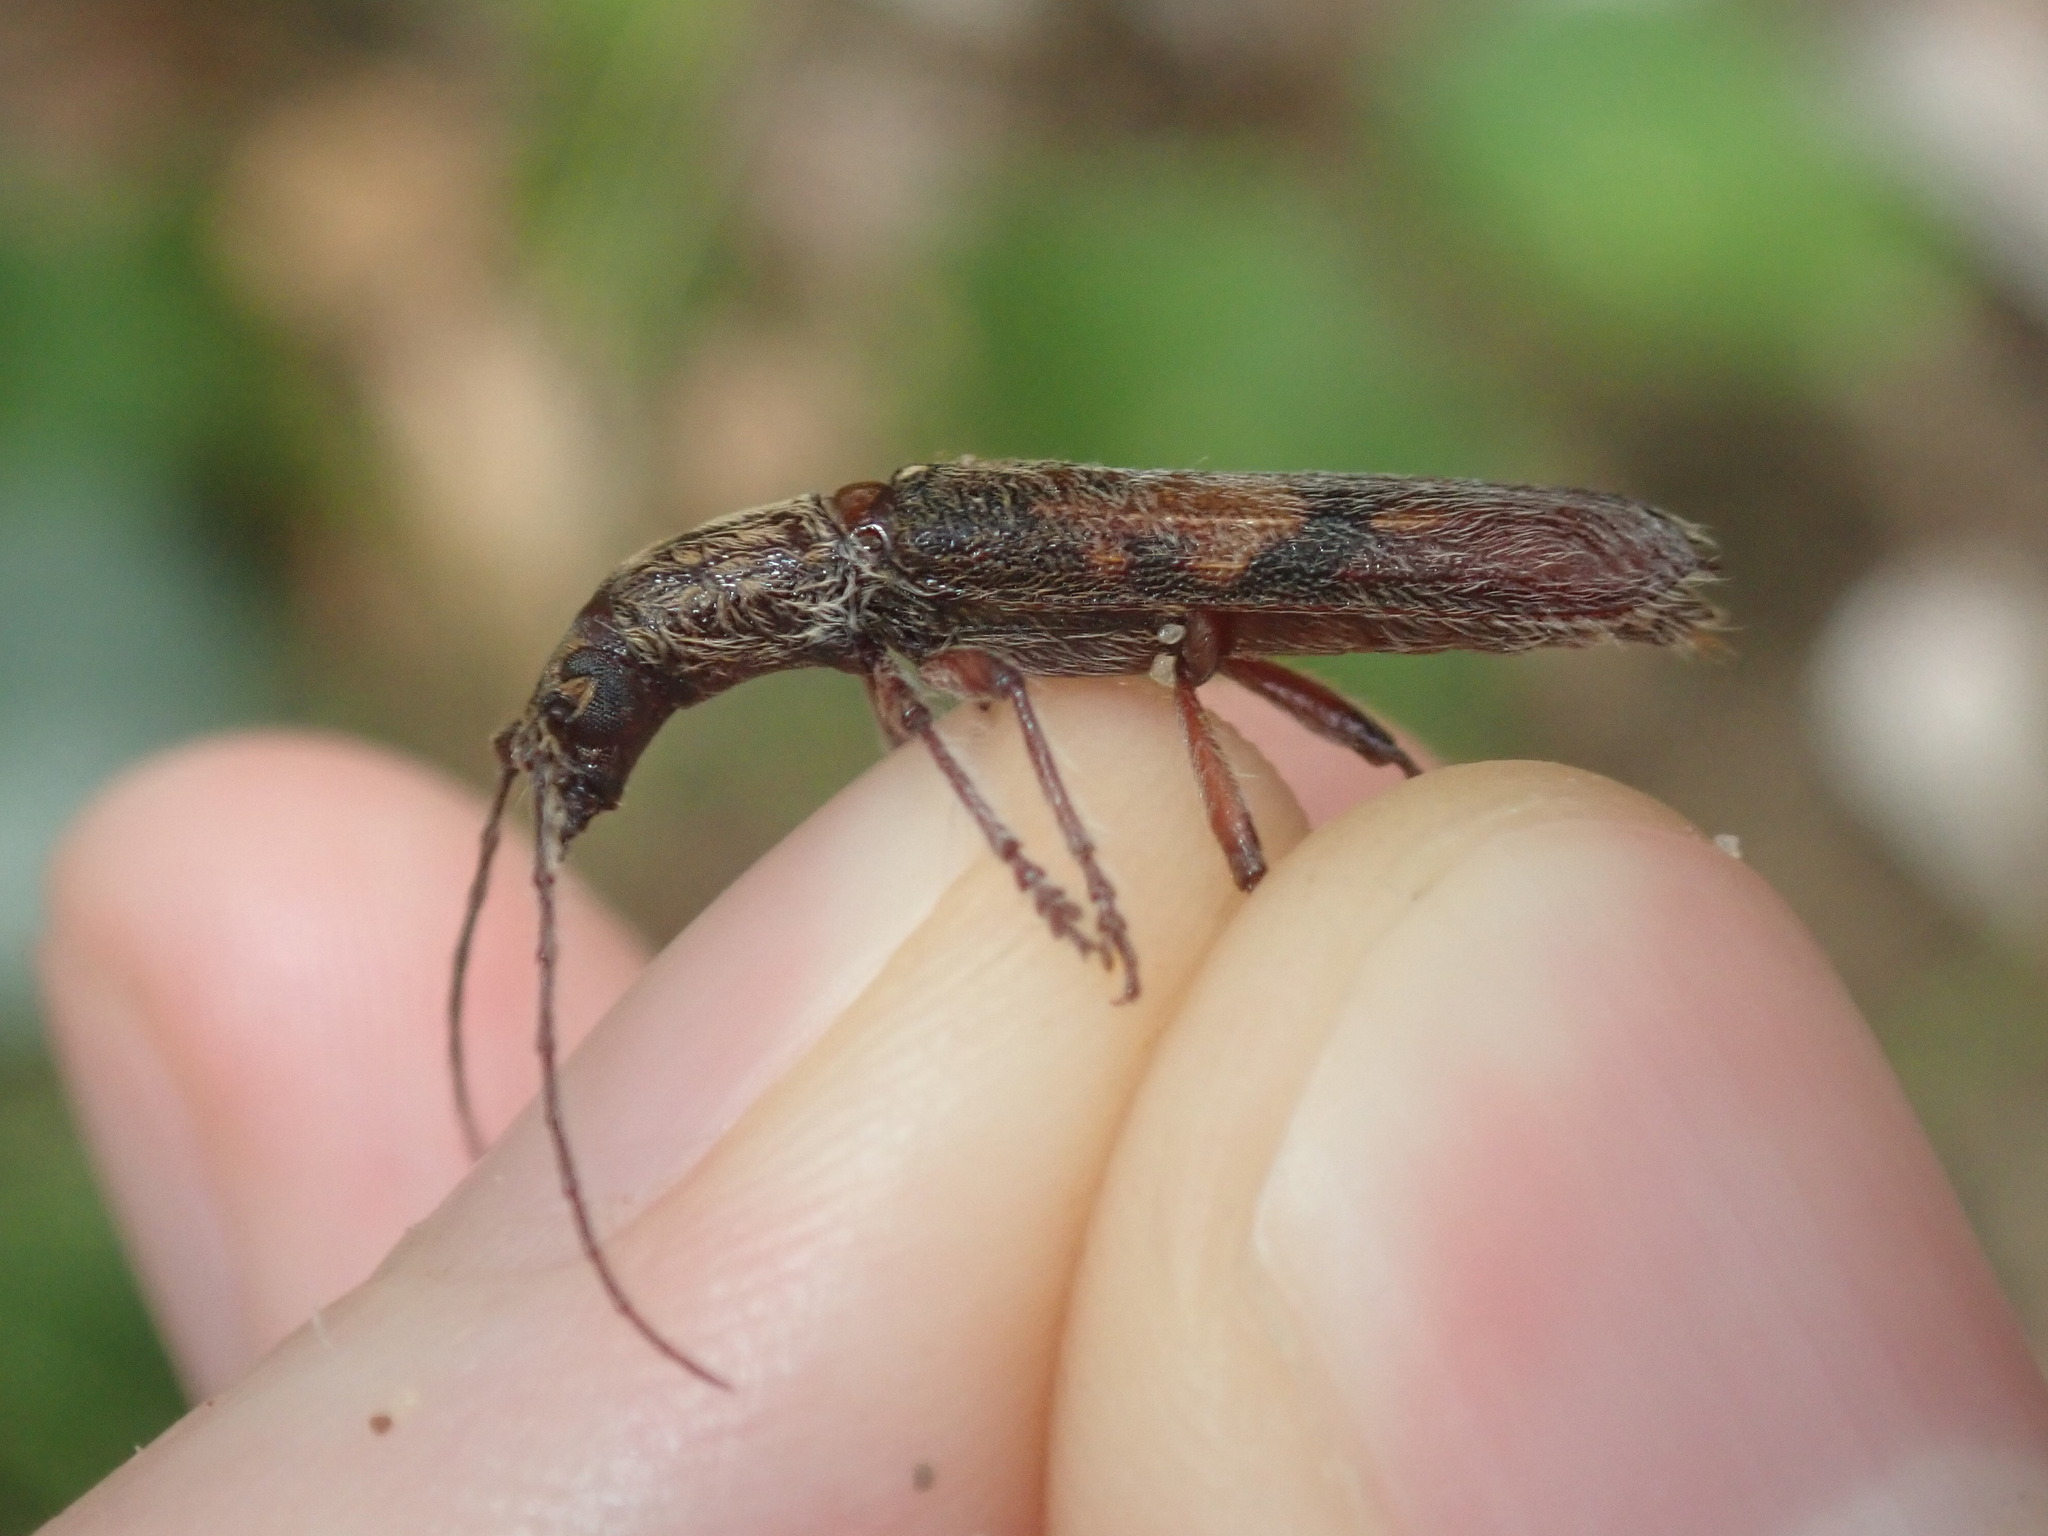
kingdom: Animalia
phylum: Arthropoda
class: Insecta
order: Coleoptera
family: Cerambycidae
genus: Phantissus
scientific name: Phantissus citatus
